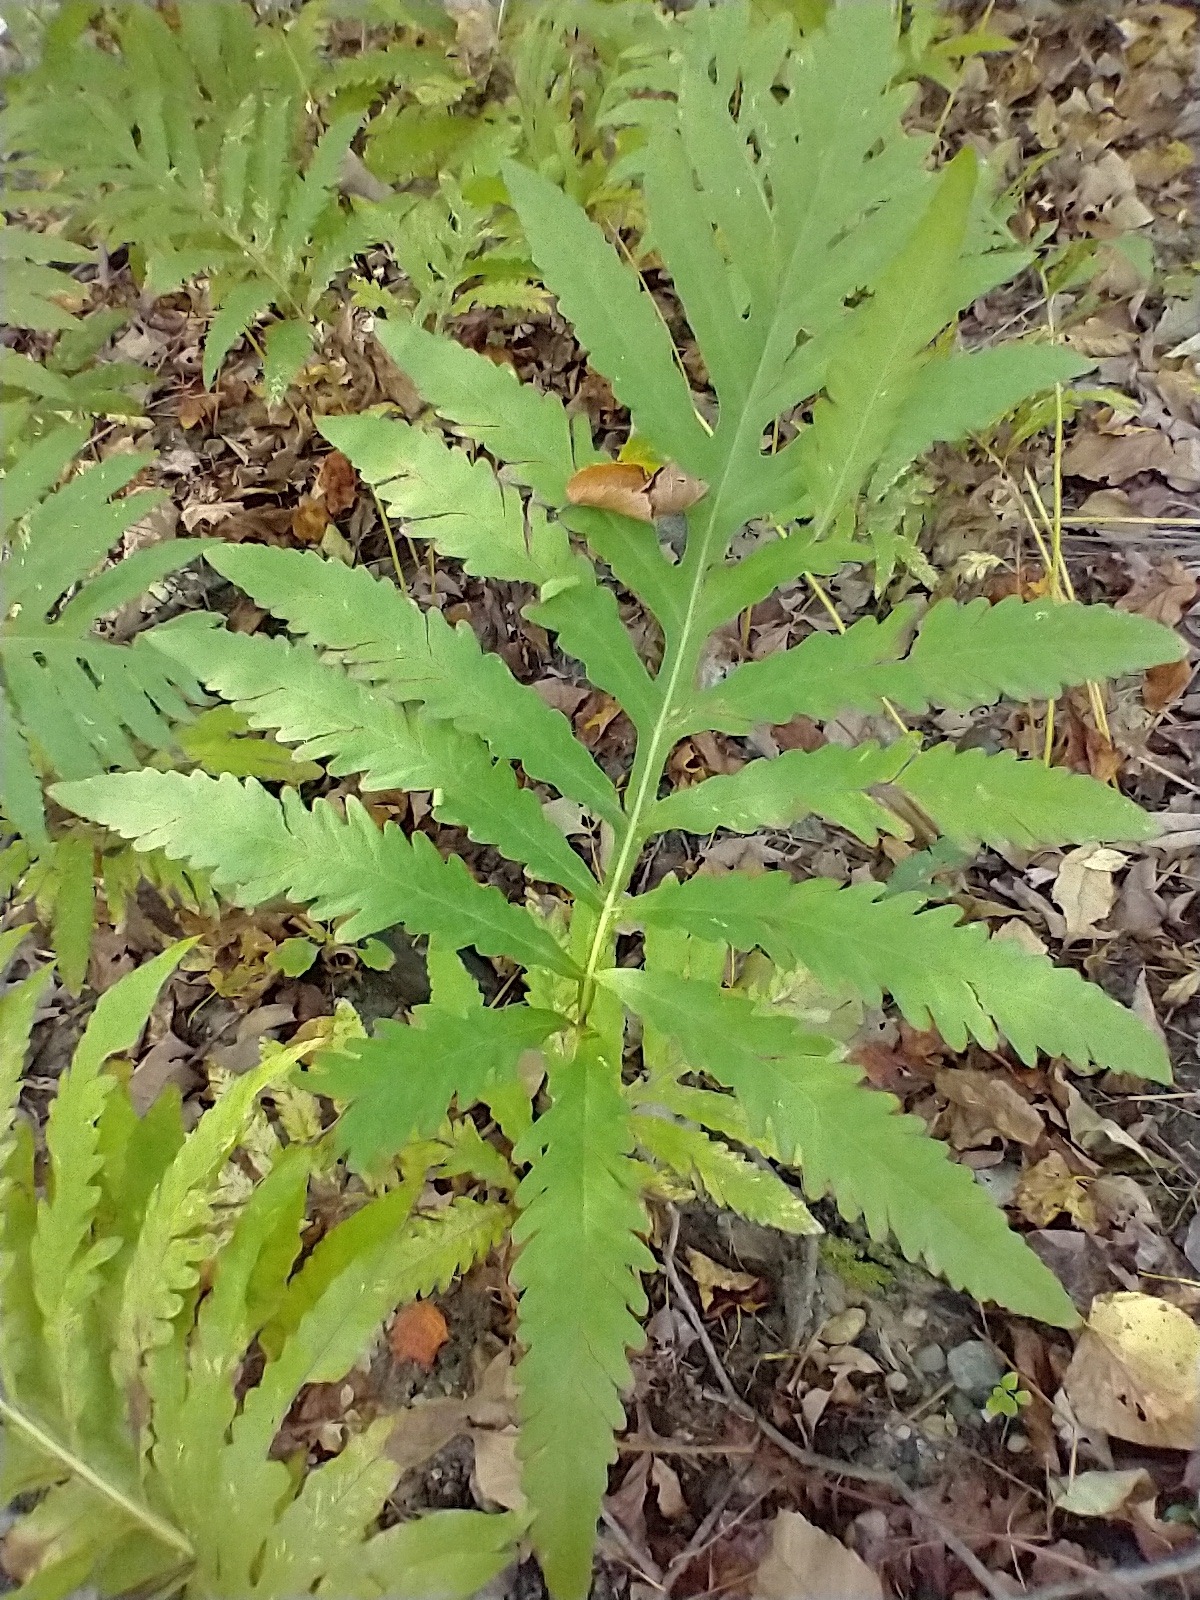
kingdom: Plantae
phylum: Tracheophyta
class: Polypodiopsida
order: Polypodiales
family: Onocleaceae
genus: Onoclea
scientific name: Onoclea sensibilis
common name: Sensitive fern
